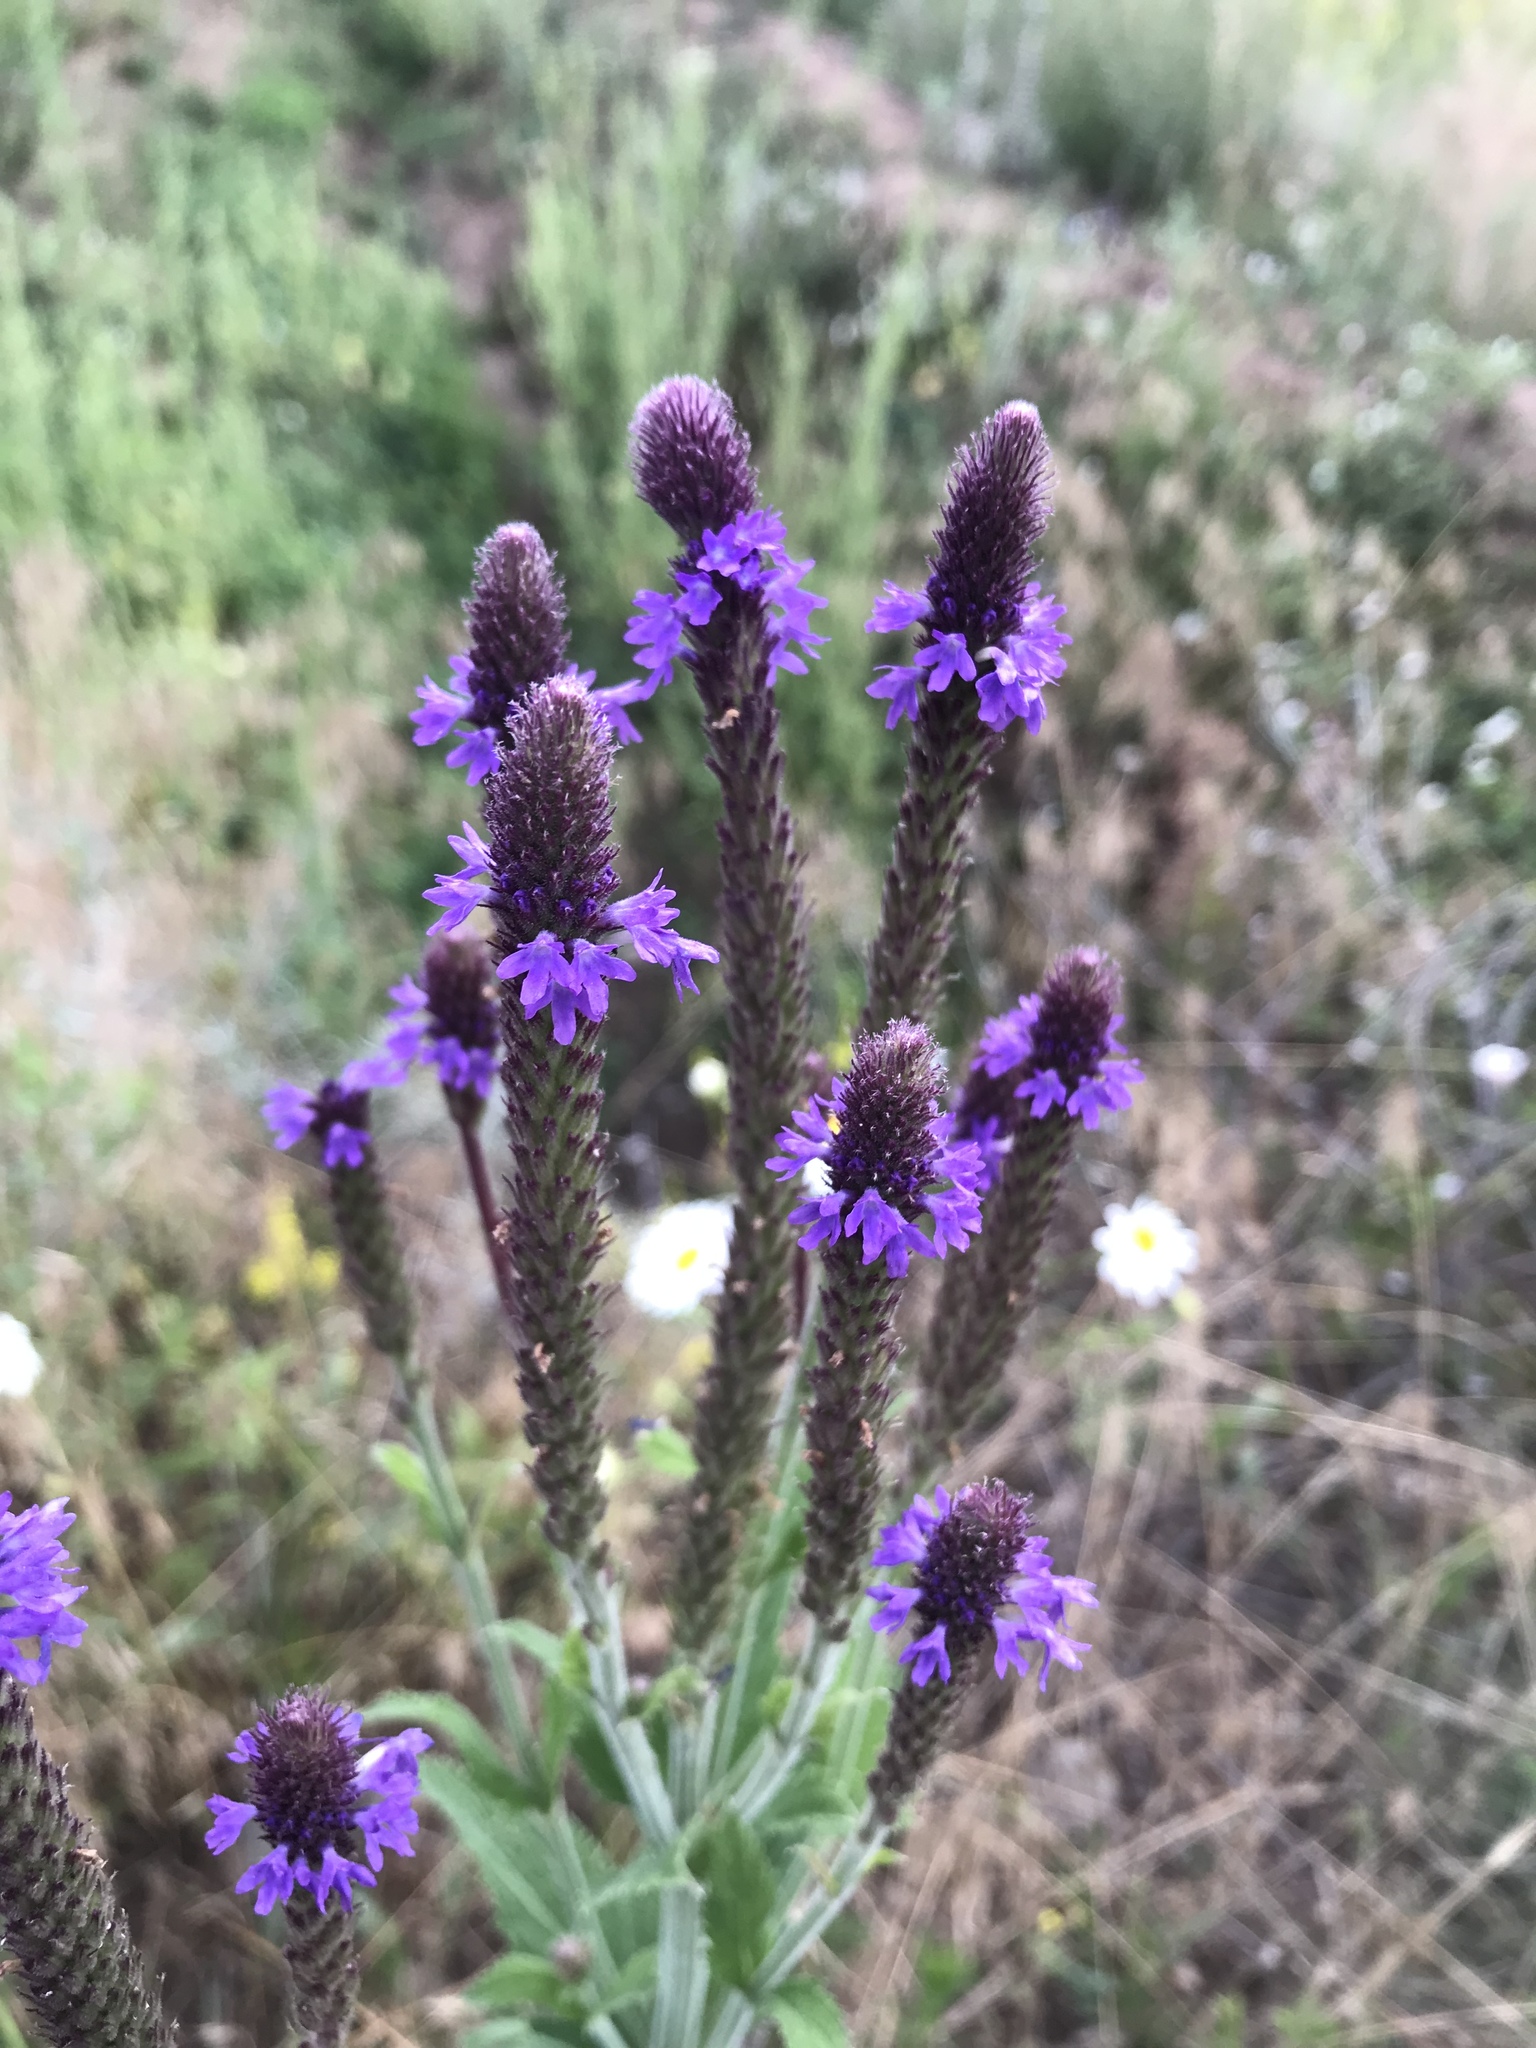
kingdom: Plantae
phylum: Tracheophyta
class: Magnoliopsida
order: Lamiales
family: Verbenaceae
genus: Verbena
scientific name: Verbena macdougalii
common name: New mexico vervain
